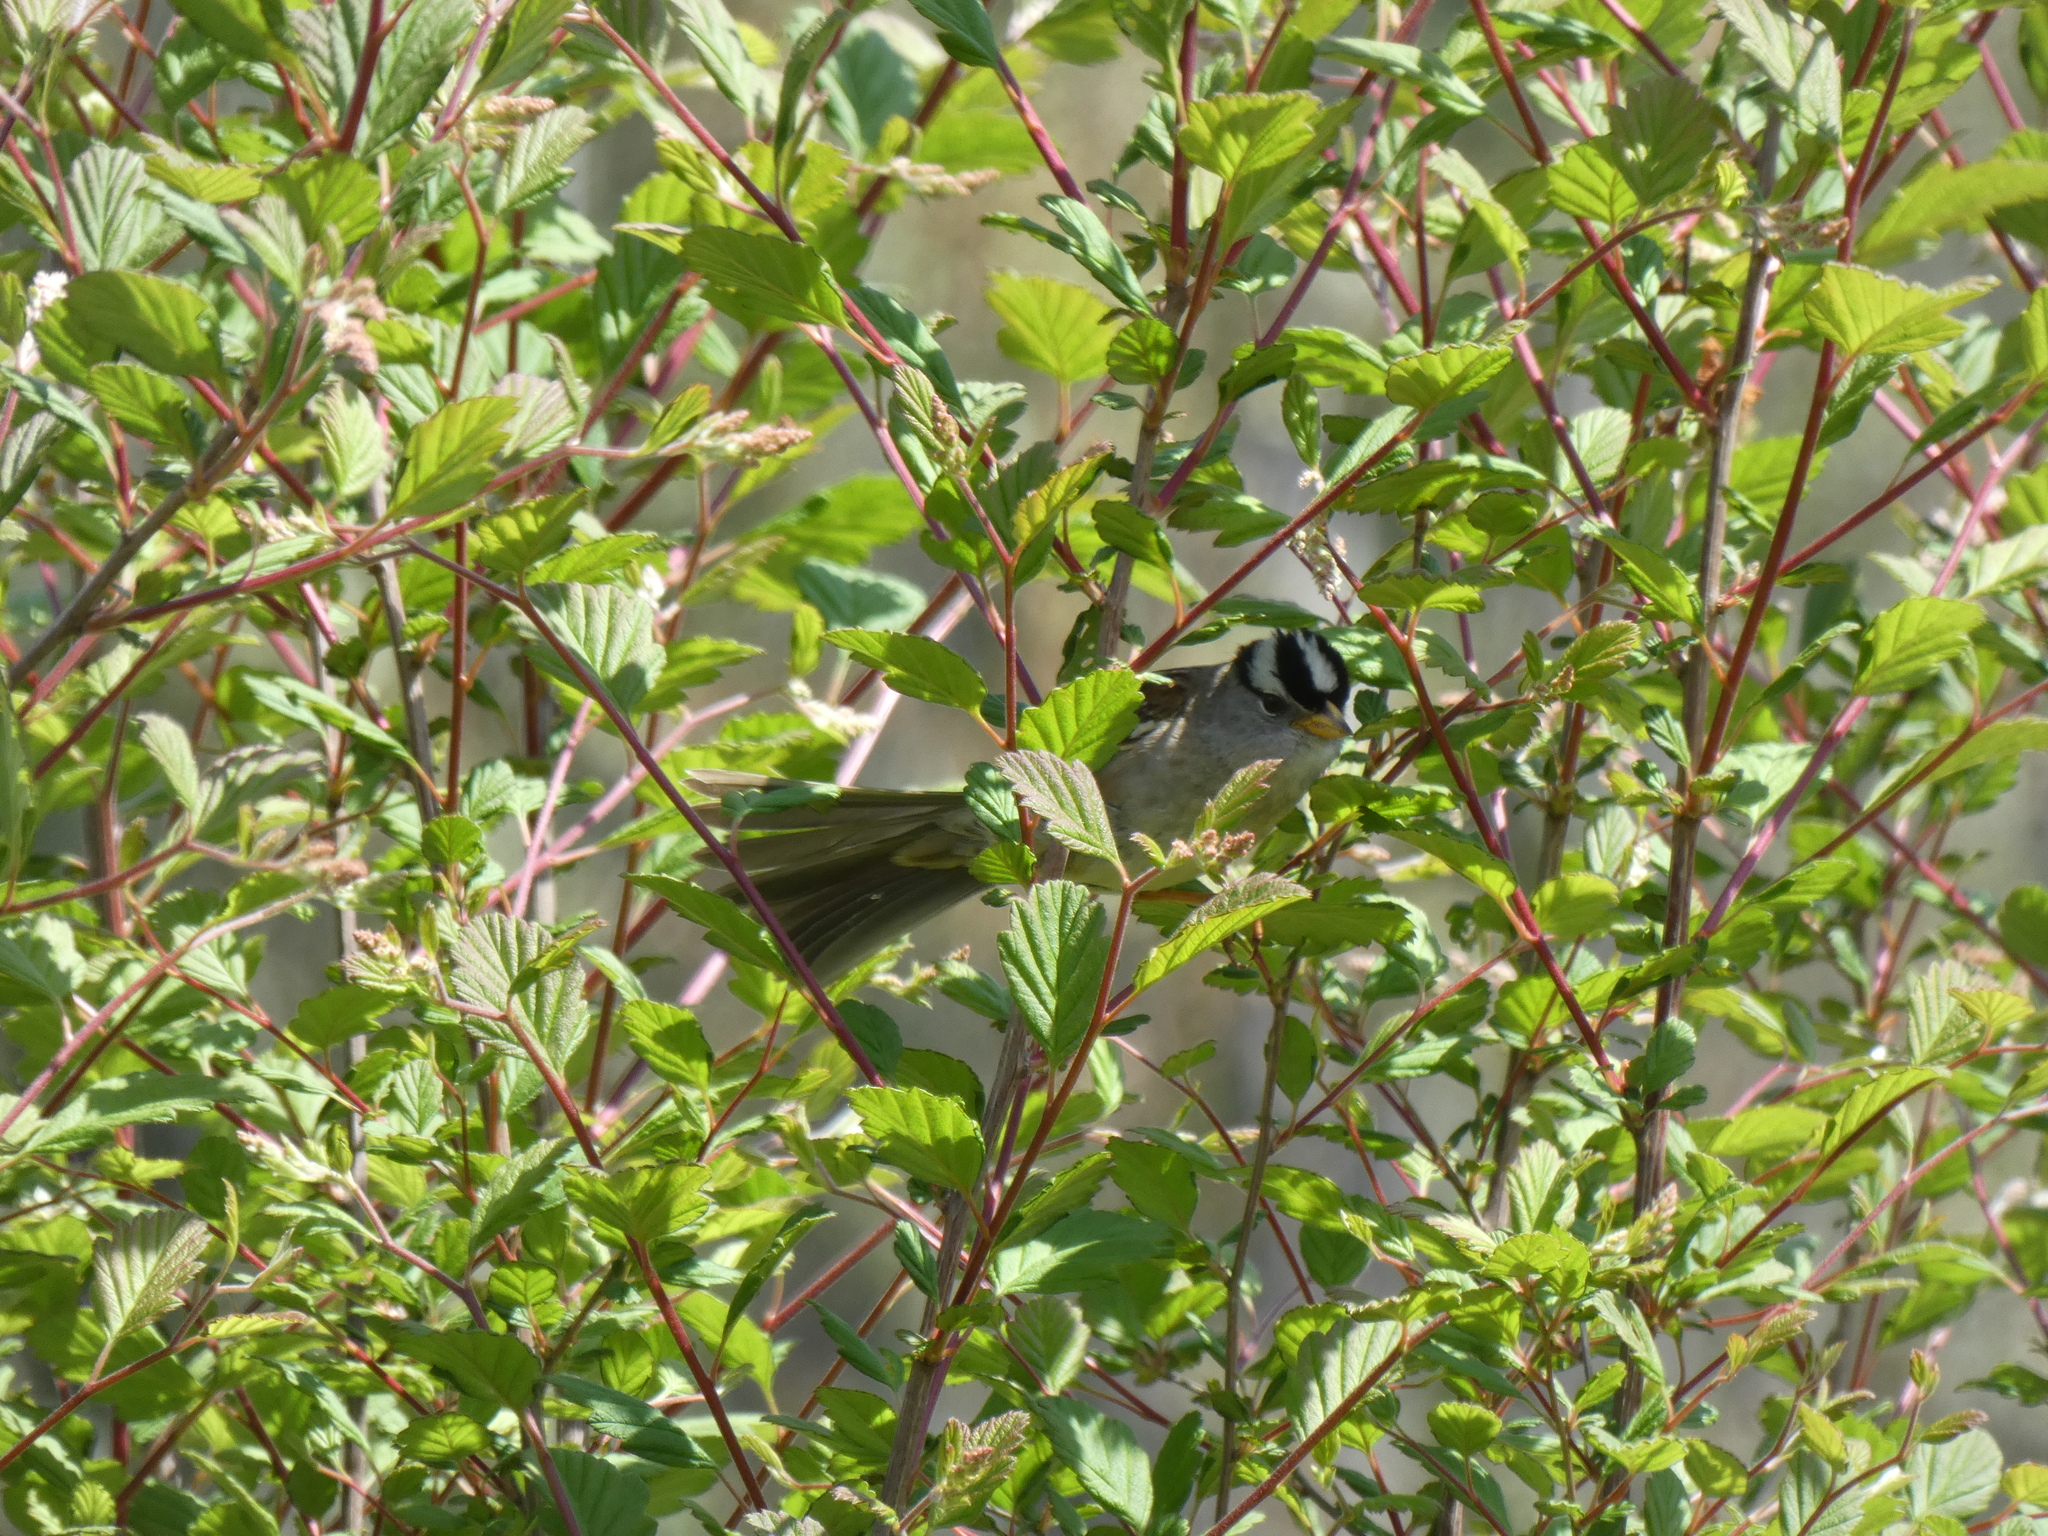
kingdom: Animalia
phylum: Chordata
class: Aves
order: Passeriformes
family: Passerellidae
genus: Zonotrichia
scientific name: Zonotrichia leucophrys
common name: White-crowned sparrow
